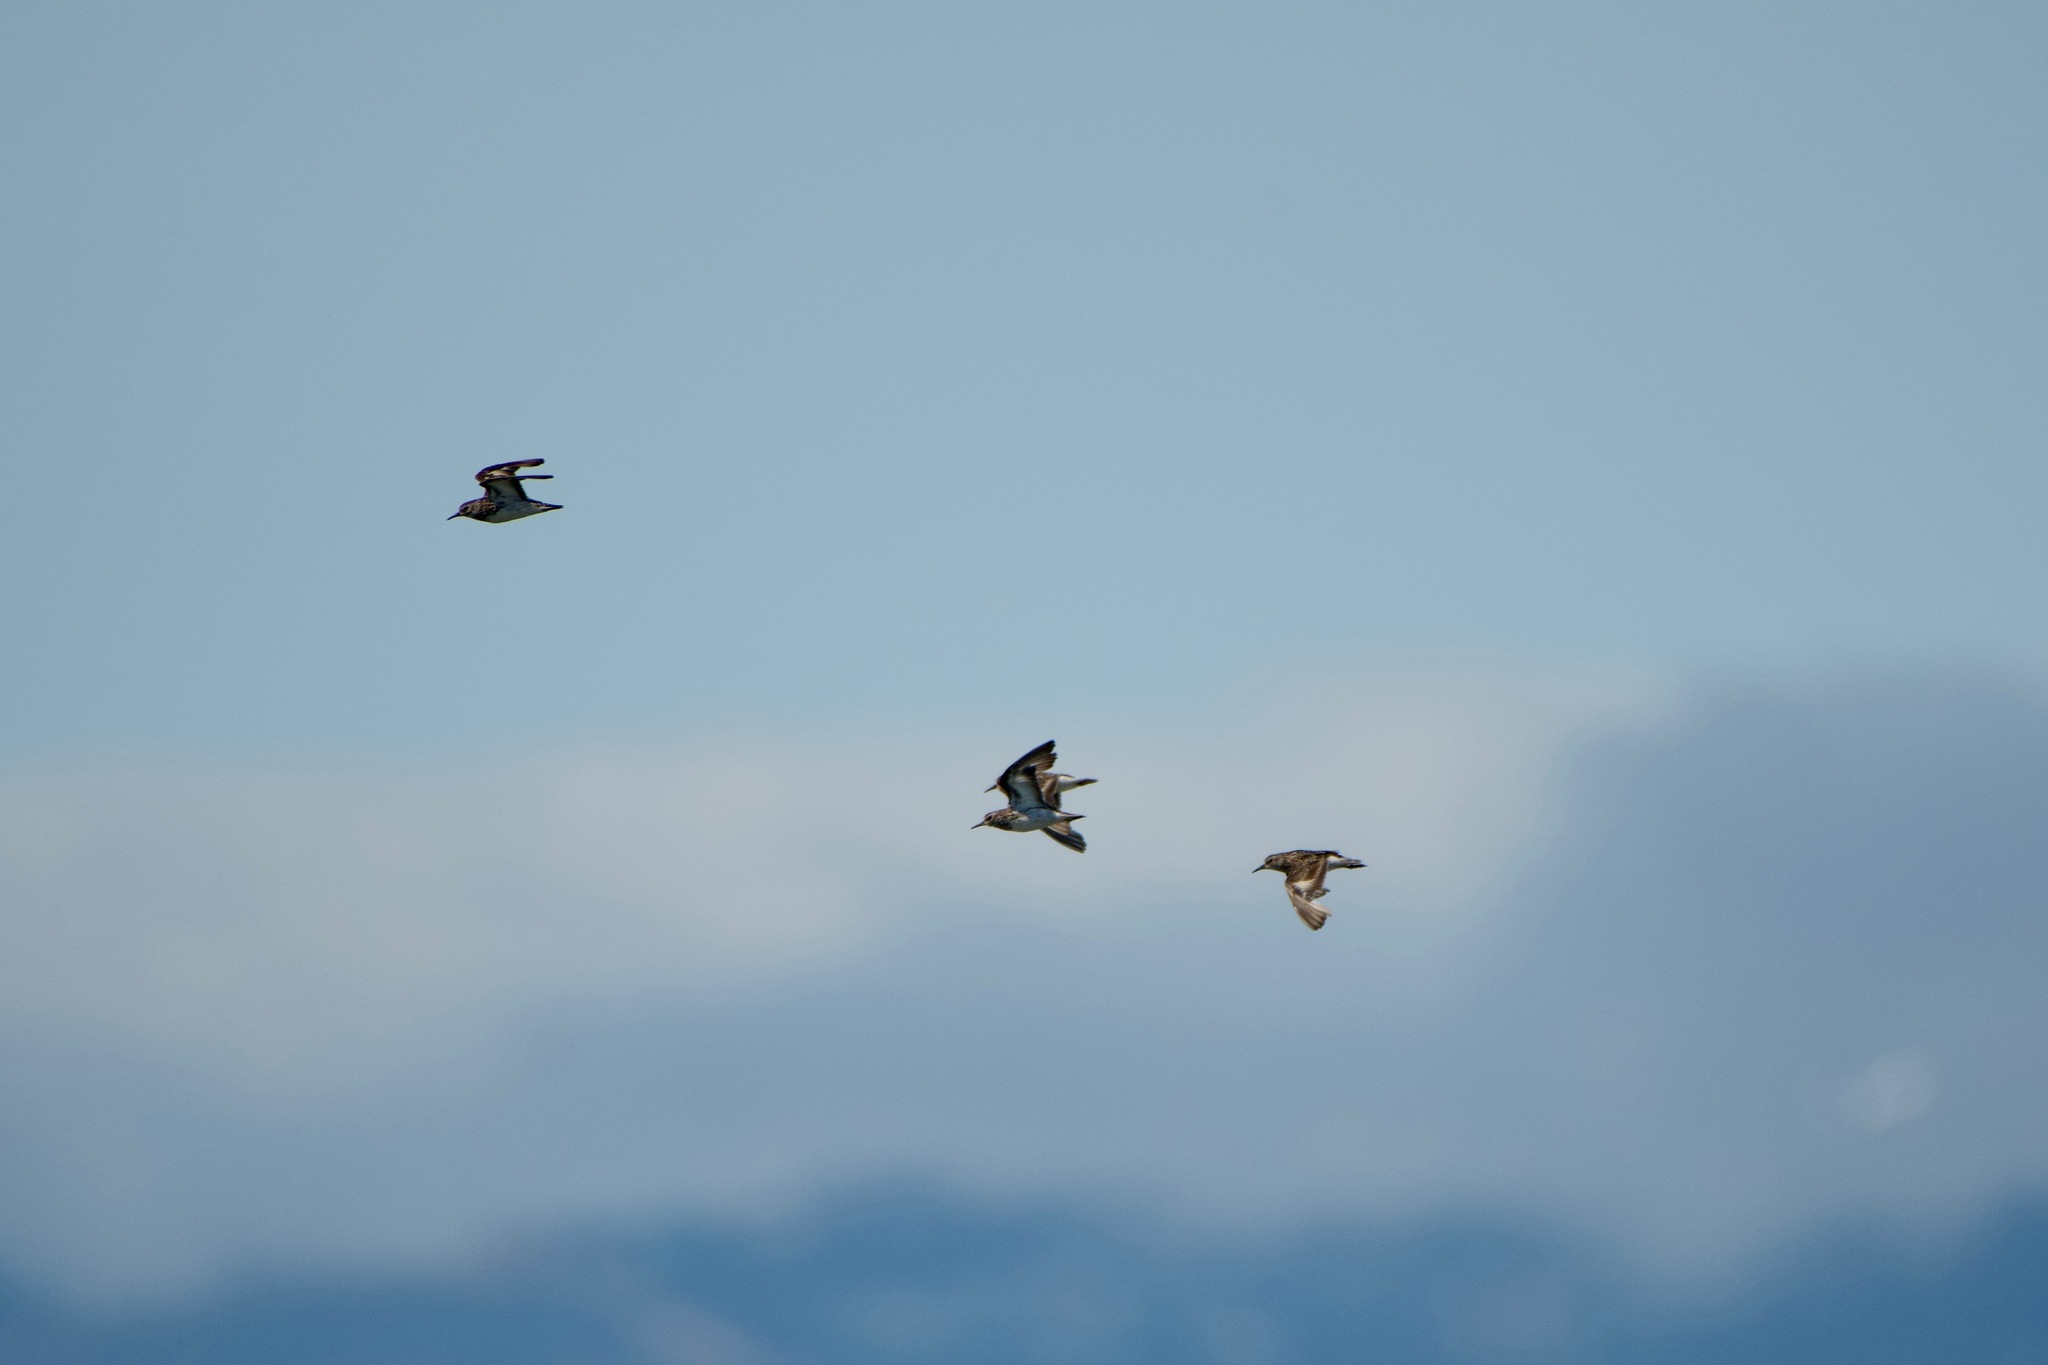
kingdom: Animalia
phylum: Chordata
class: Aves
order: Charadriiformes
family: Scolopacidae
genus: Calidris
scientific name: Calidris minutilla
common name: Least sandpiper
